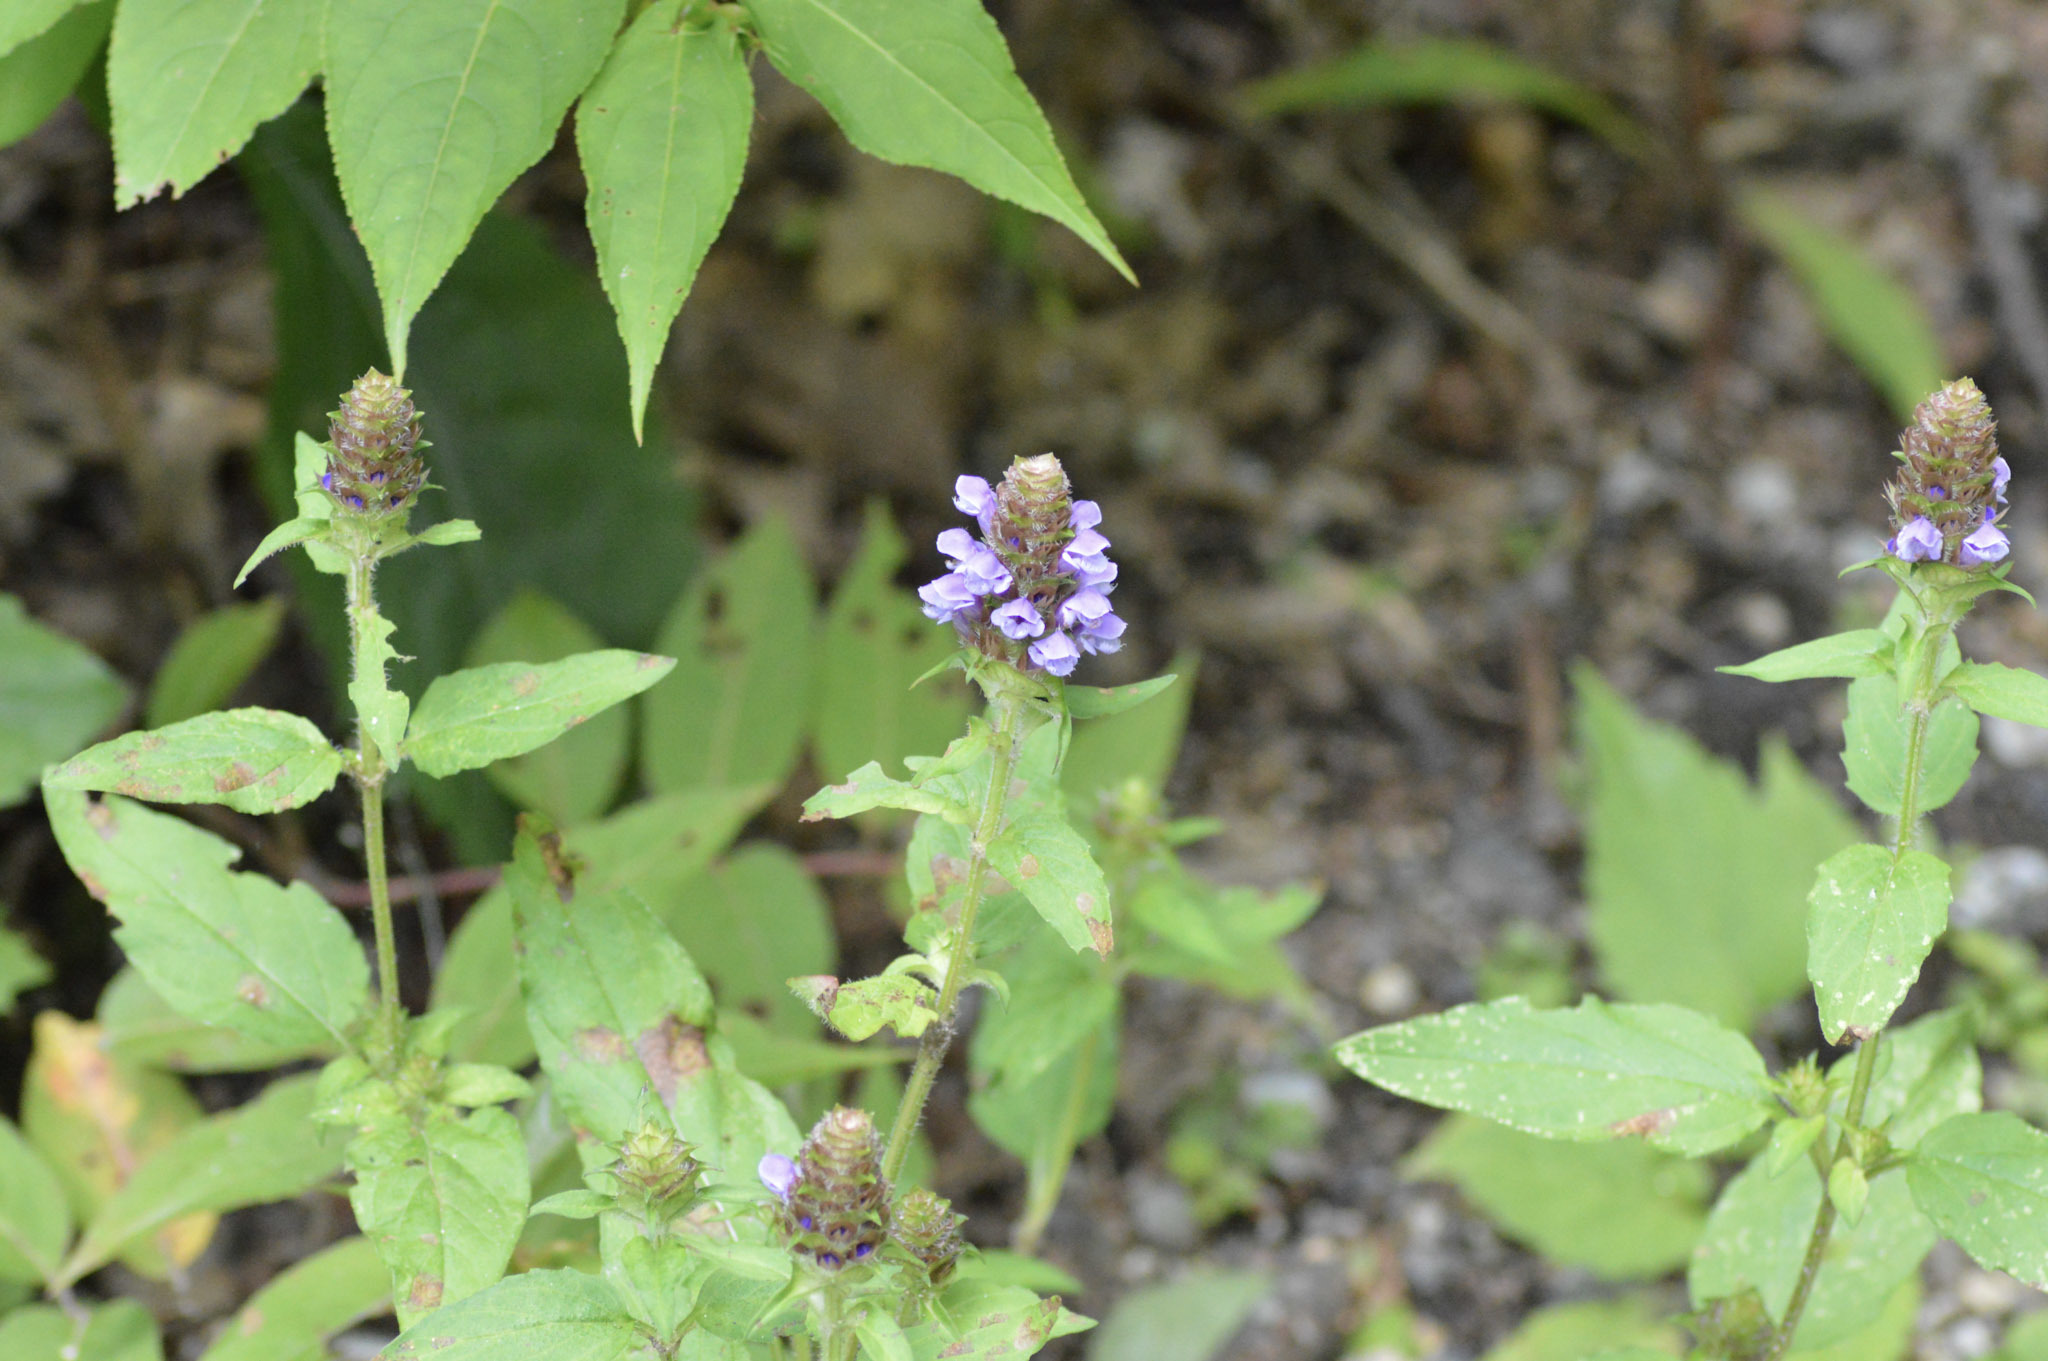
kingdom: Plantae
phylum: Tracheophyta
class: Magnoliopsida
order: Lamiales
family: Lamiaceae
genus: Prunella
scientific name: Prunella vulgaris
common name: Heal-all
